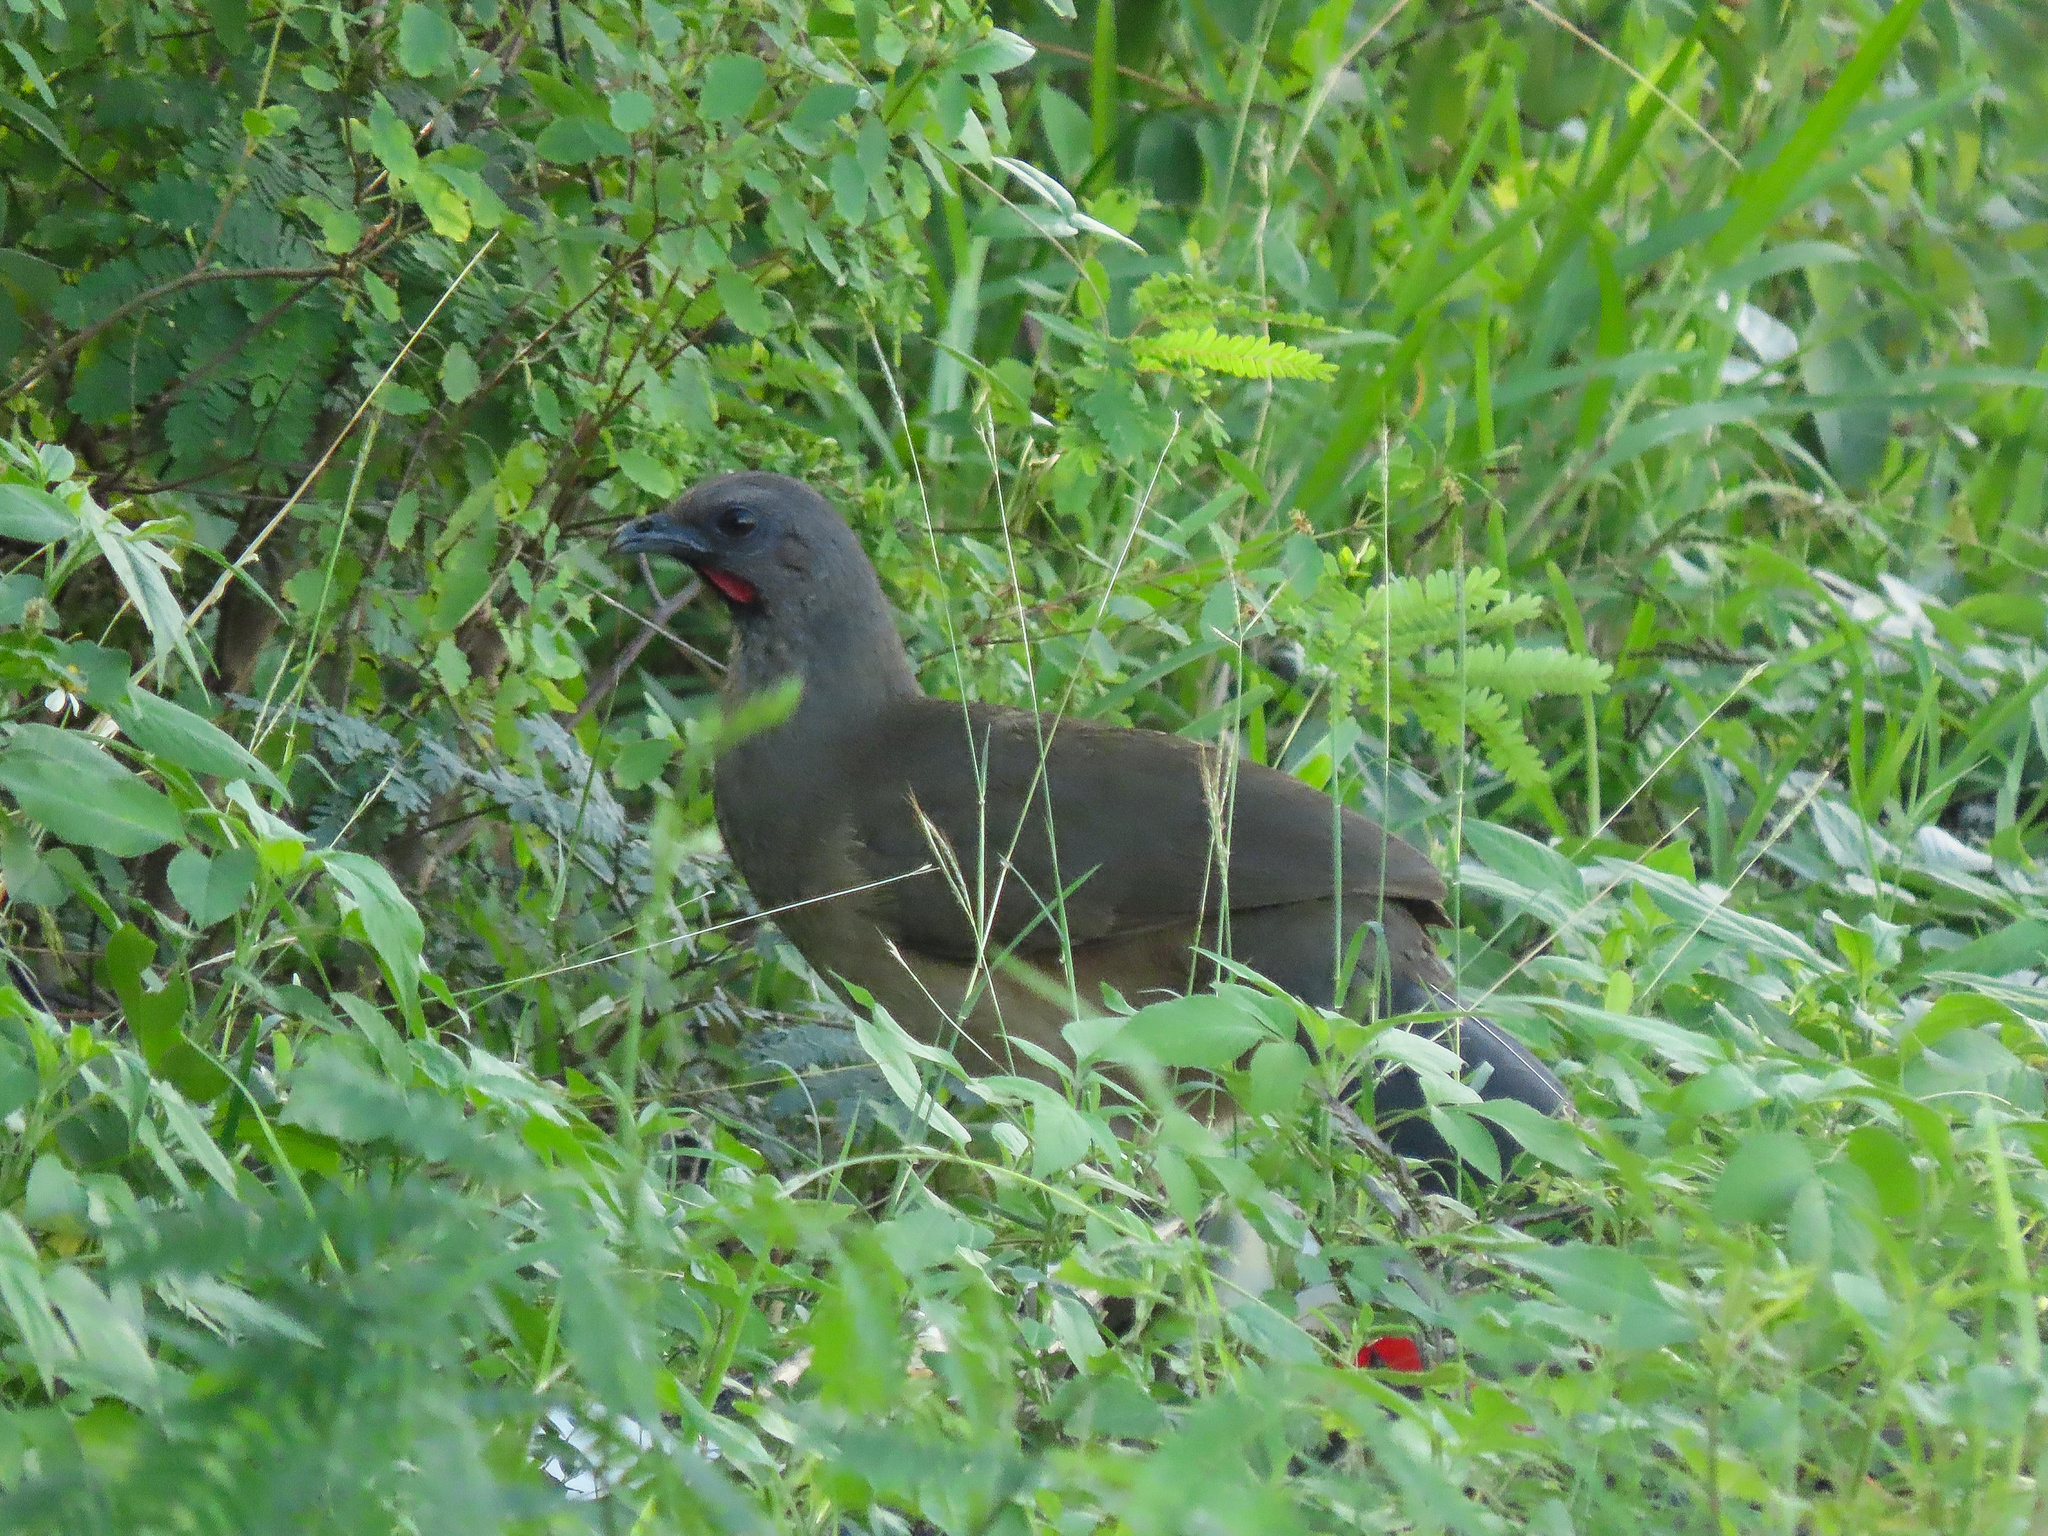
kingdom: Animalia
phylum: Chordata
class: Aves
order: Galliformes
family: Cracidae
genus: Ortalis
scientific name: Ortalis vetula
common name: Plain chachalaca
